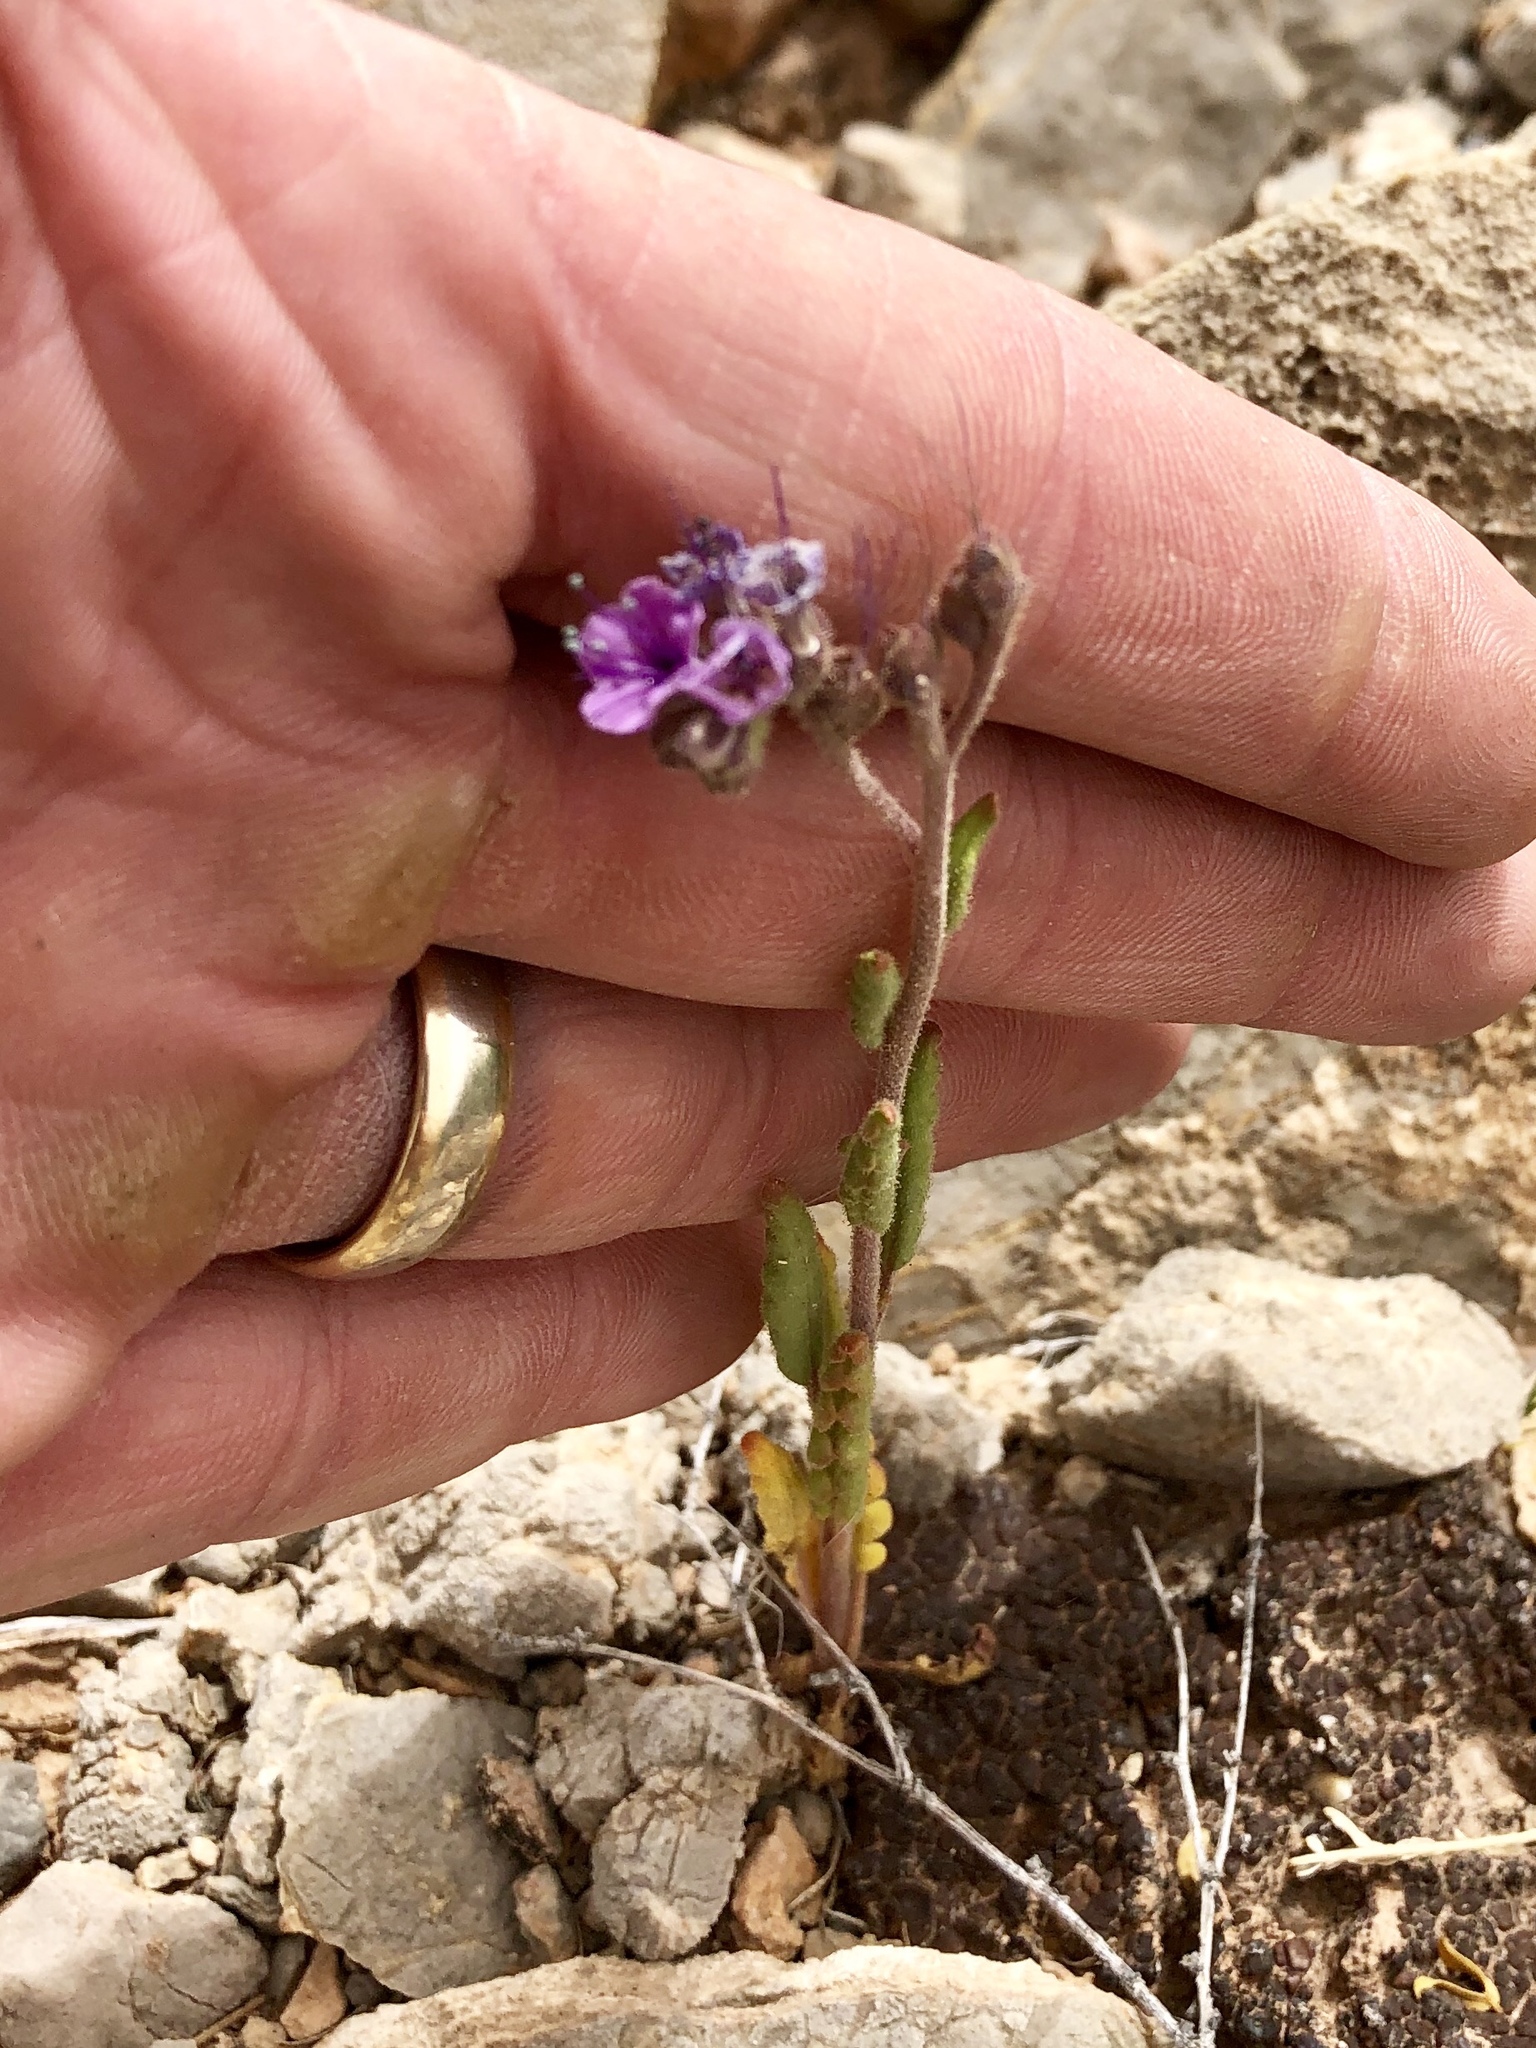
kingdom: Plantae
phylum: Tracheophyta
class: Magnoliopsida
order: Boraginales
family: Hydrophyllaceae
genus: Phacelia
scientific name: Phacelia integrifolia
